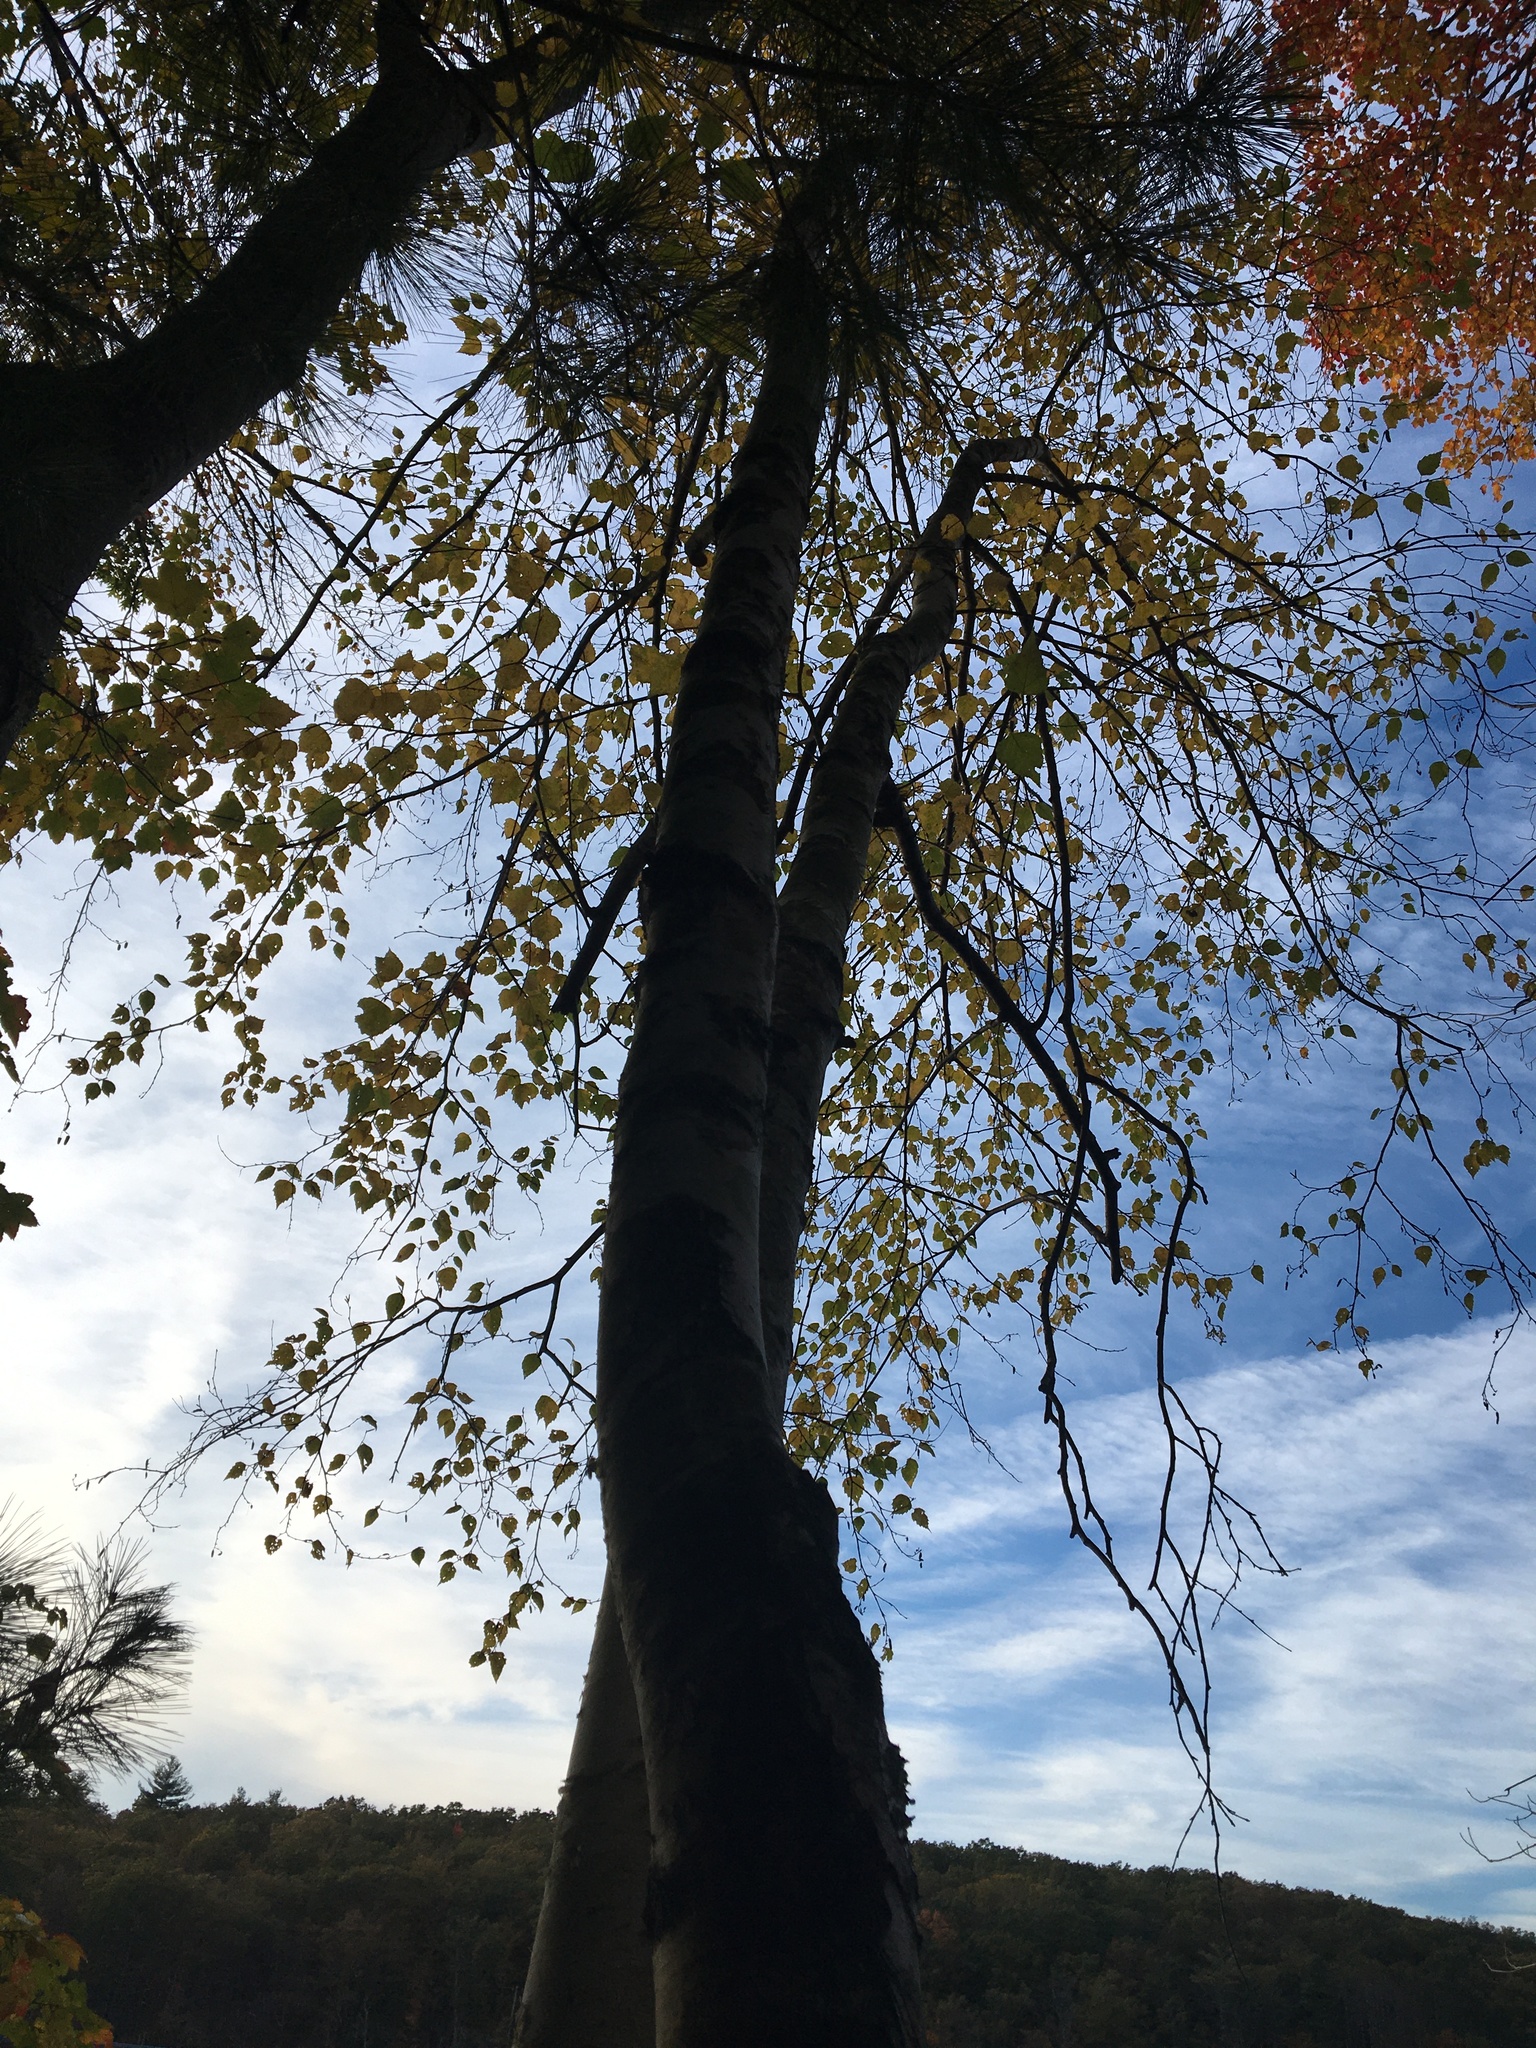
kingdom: Plantae
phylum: Tracheophyta
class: Magnoliopsida
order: Fagales
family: Betulaceae
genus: Betula
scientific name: Betula papyrifera
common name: Paper birch
